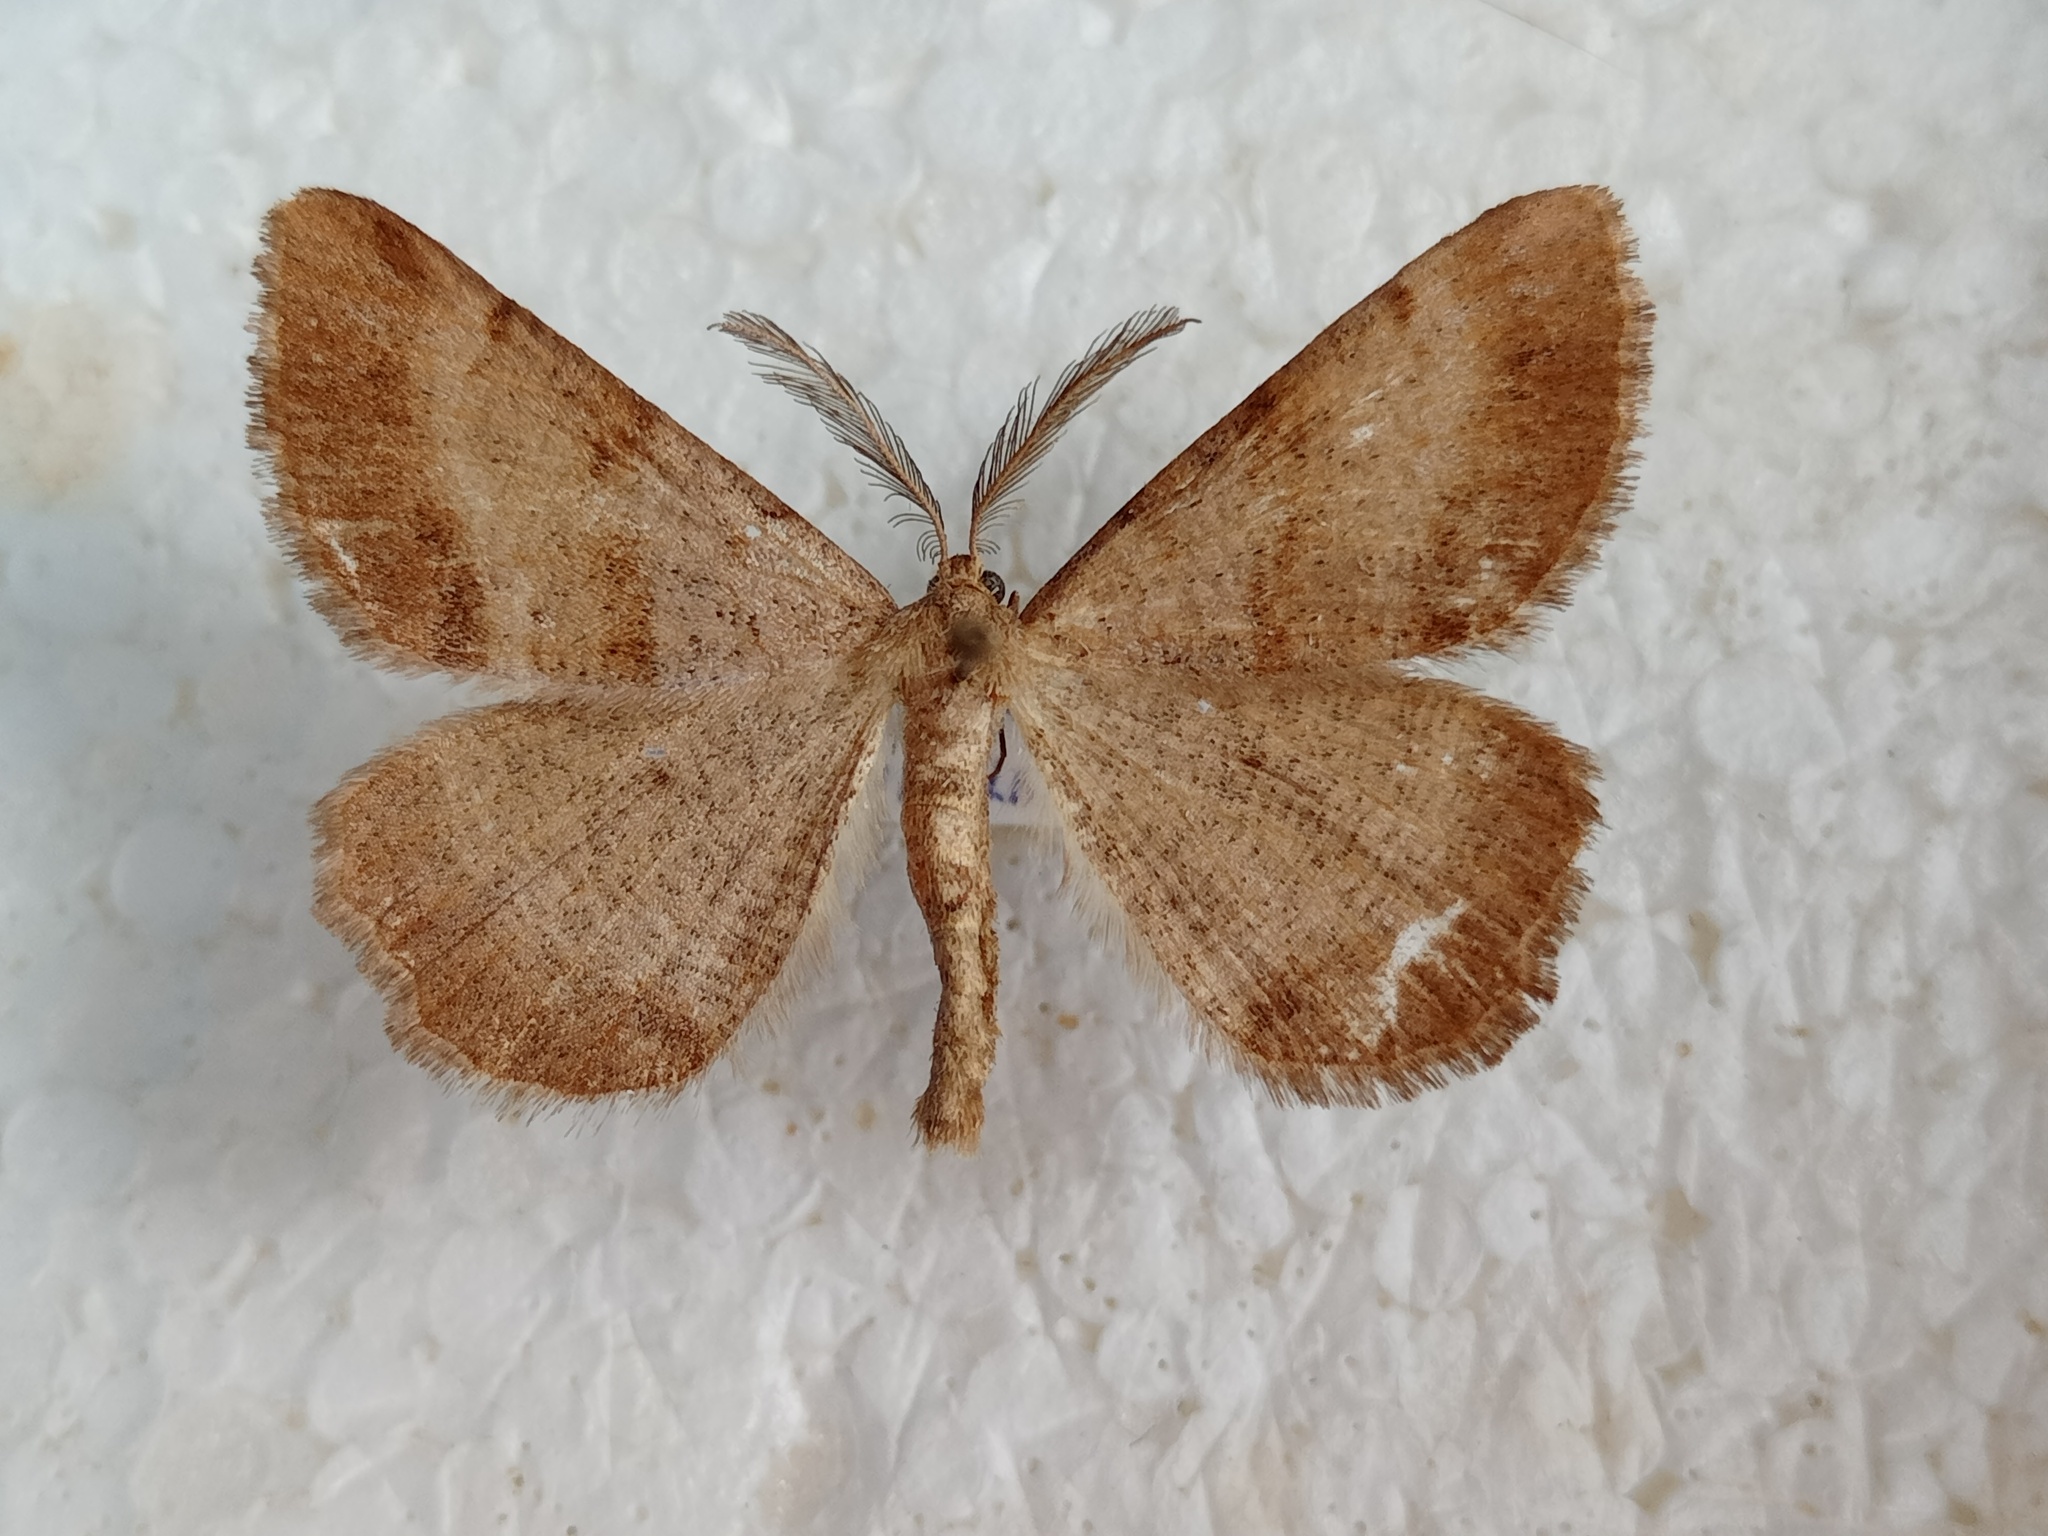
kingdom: Animalia
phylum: Arthropoda
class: Insecta
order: Lepidoptera
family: Geometridae
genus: Selidosema
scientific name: Selidosema brunnearia
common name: Bordered grey
